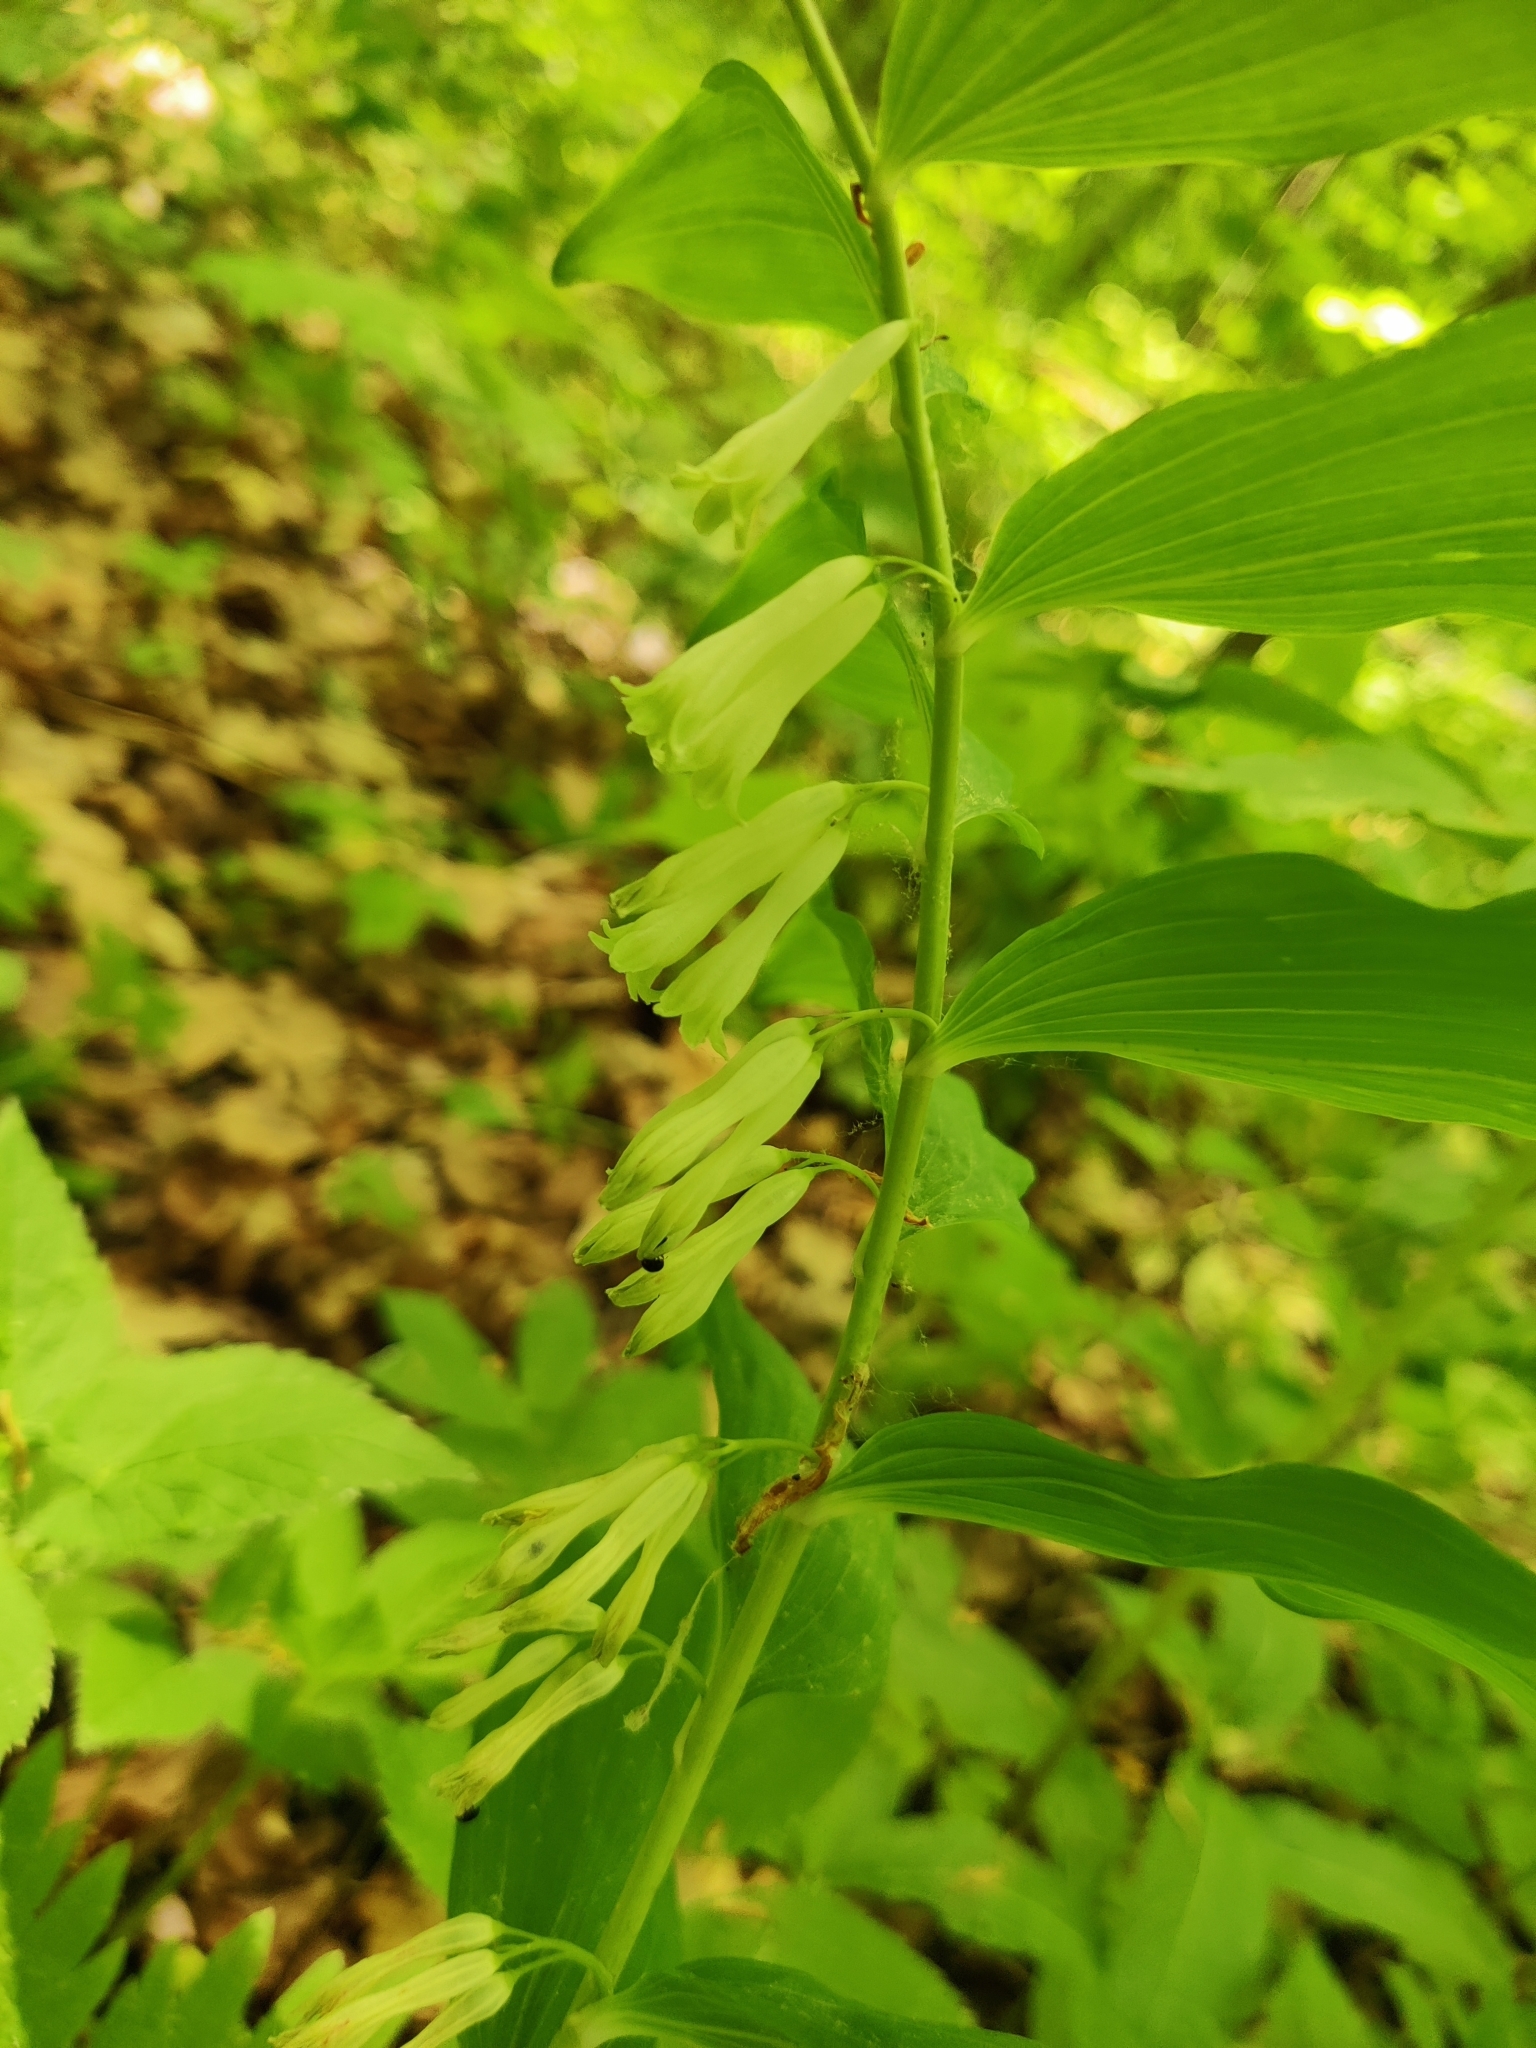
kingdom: Plantae
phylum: Tracheophyta
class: Liliopsida
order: Asparagales
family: Asparagaceae
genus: Polygonatum
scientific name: Polygonatum multiflorum
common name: Solomon's-seal
